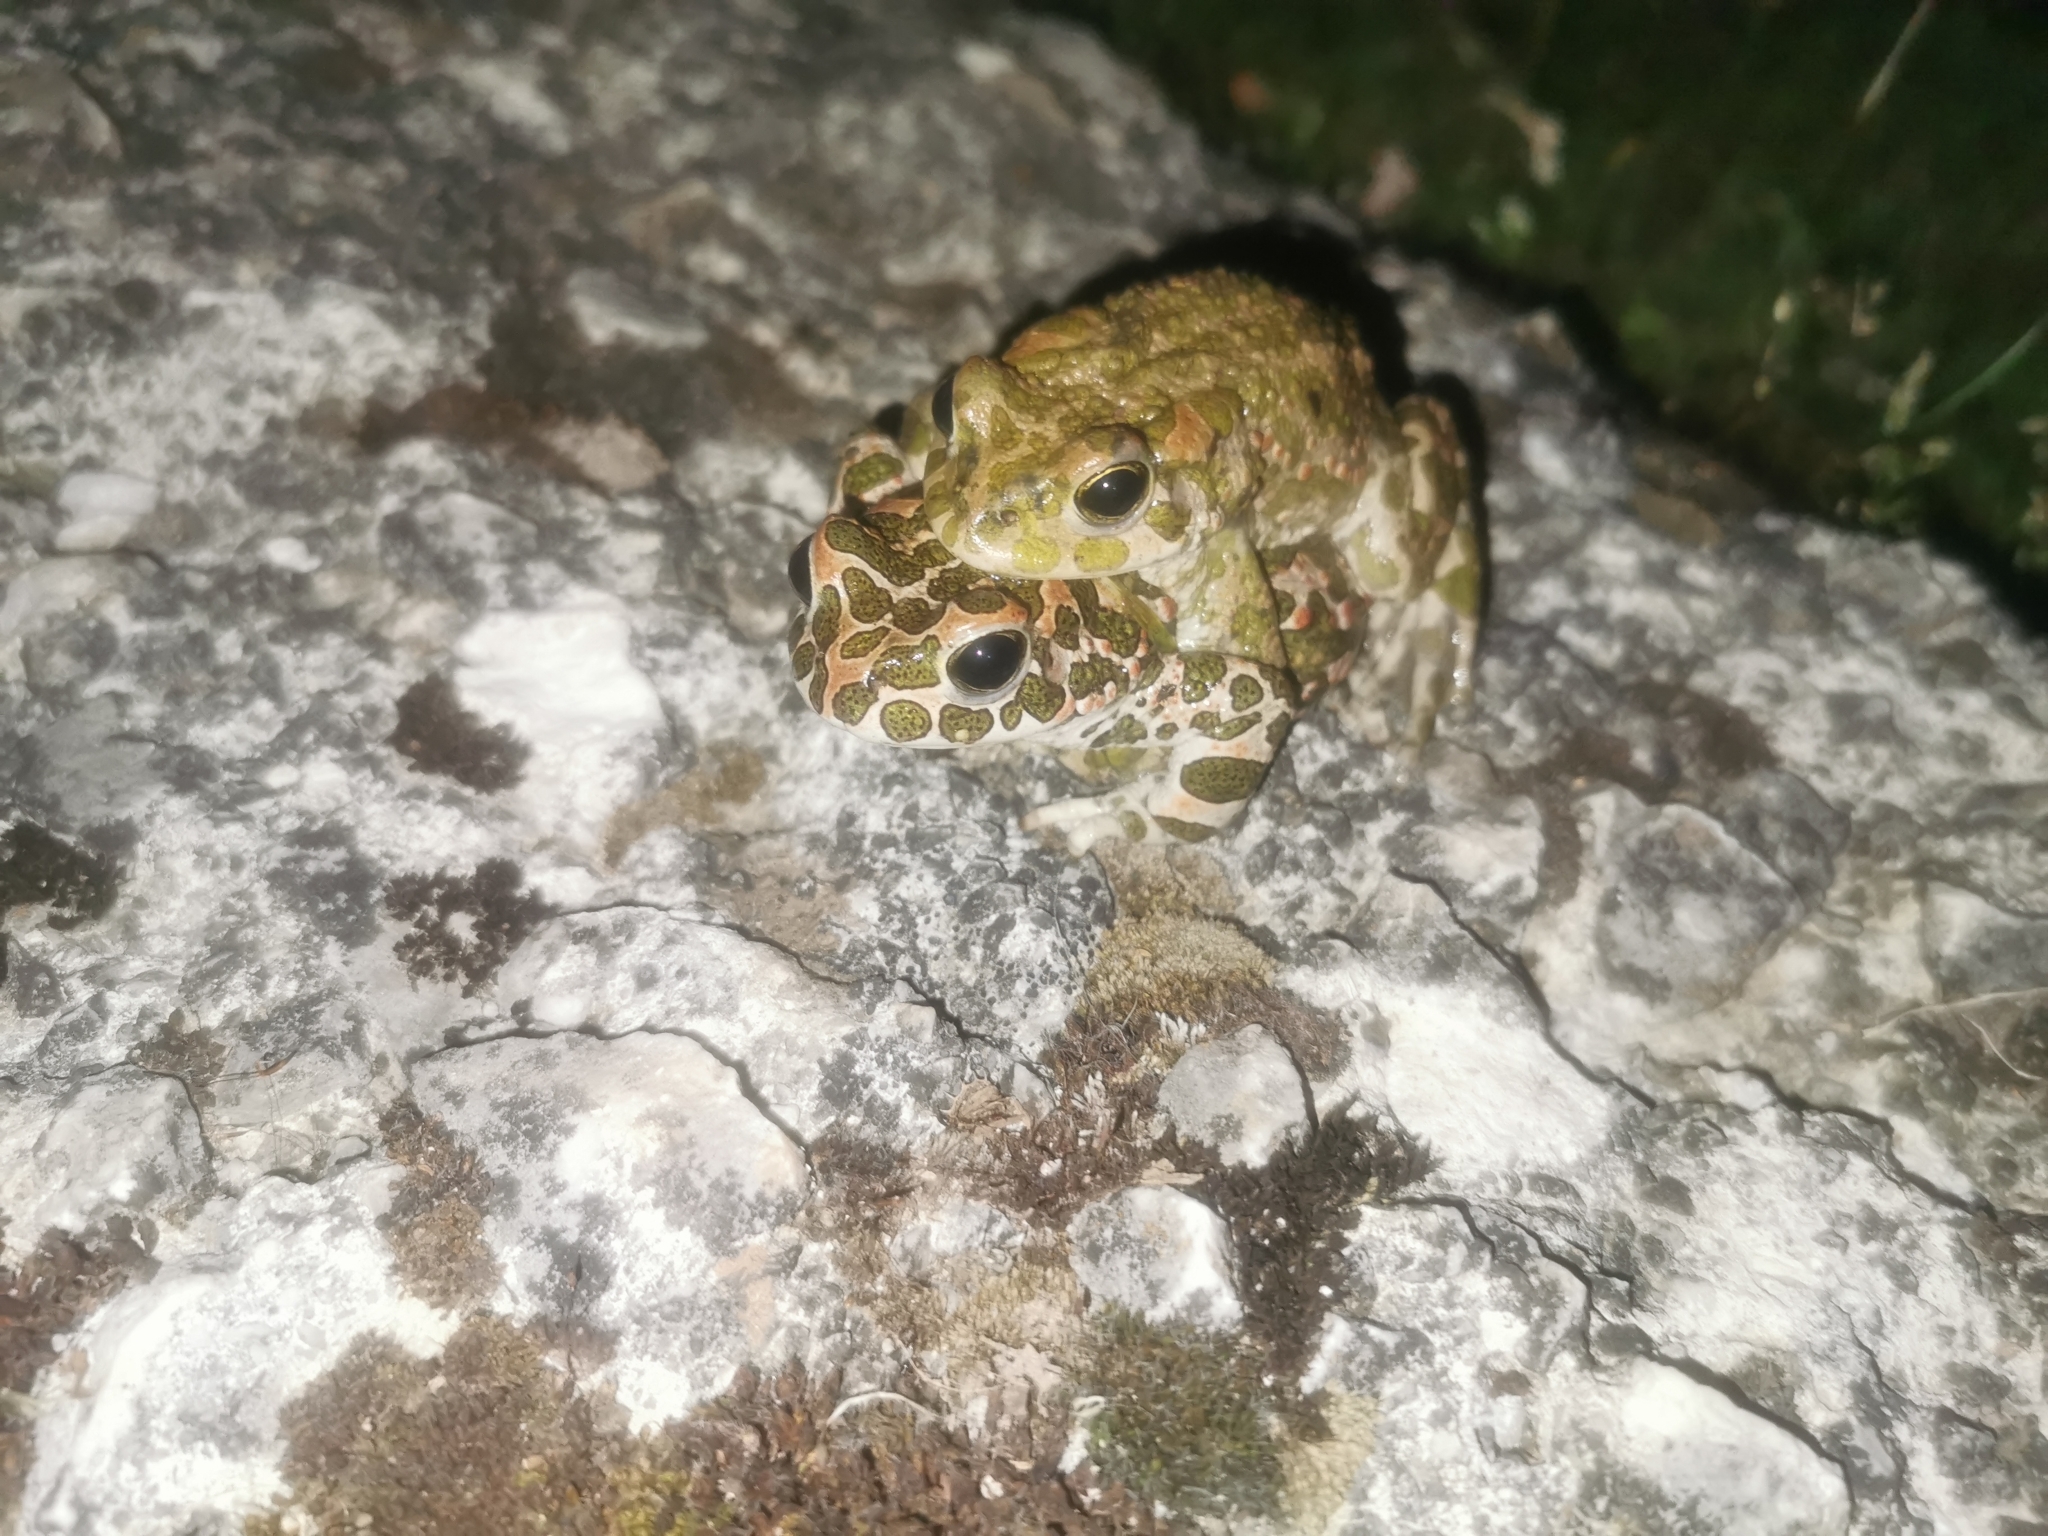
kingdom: Animalia
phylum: Chordata
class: Amphibia
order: Anura
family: Bufonidae
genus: Bufotes
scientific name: Bufotes viridis
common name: European green toad
